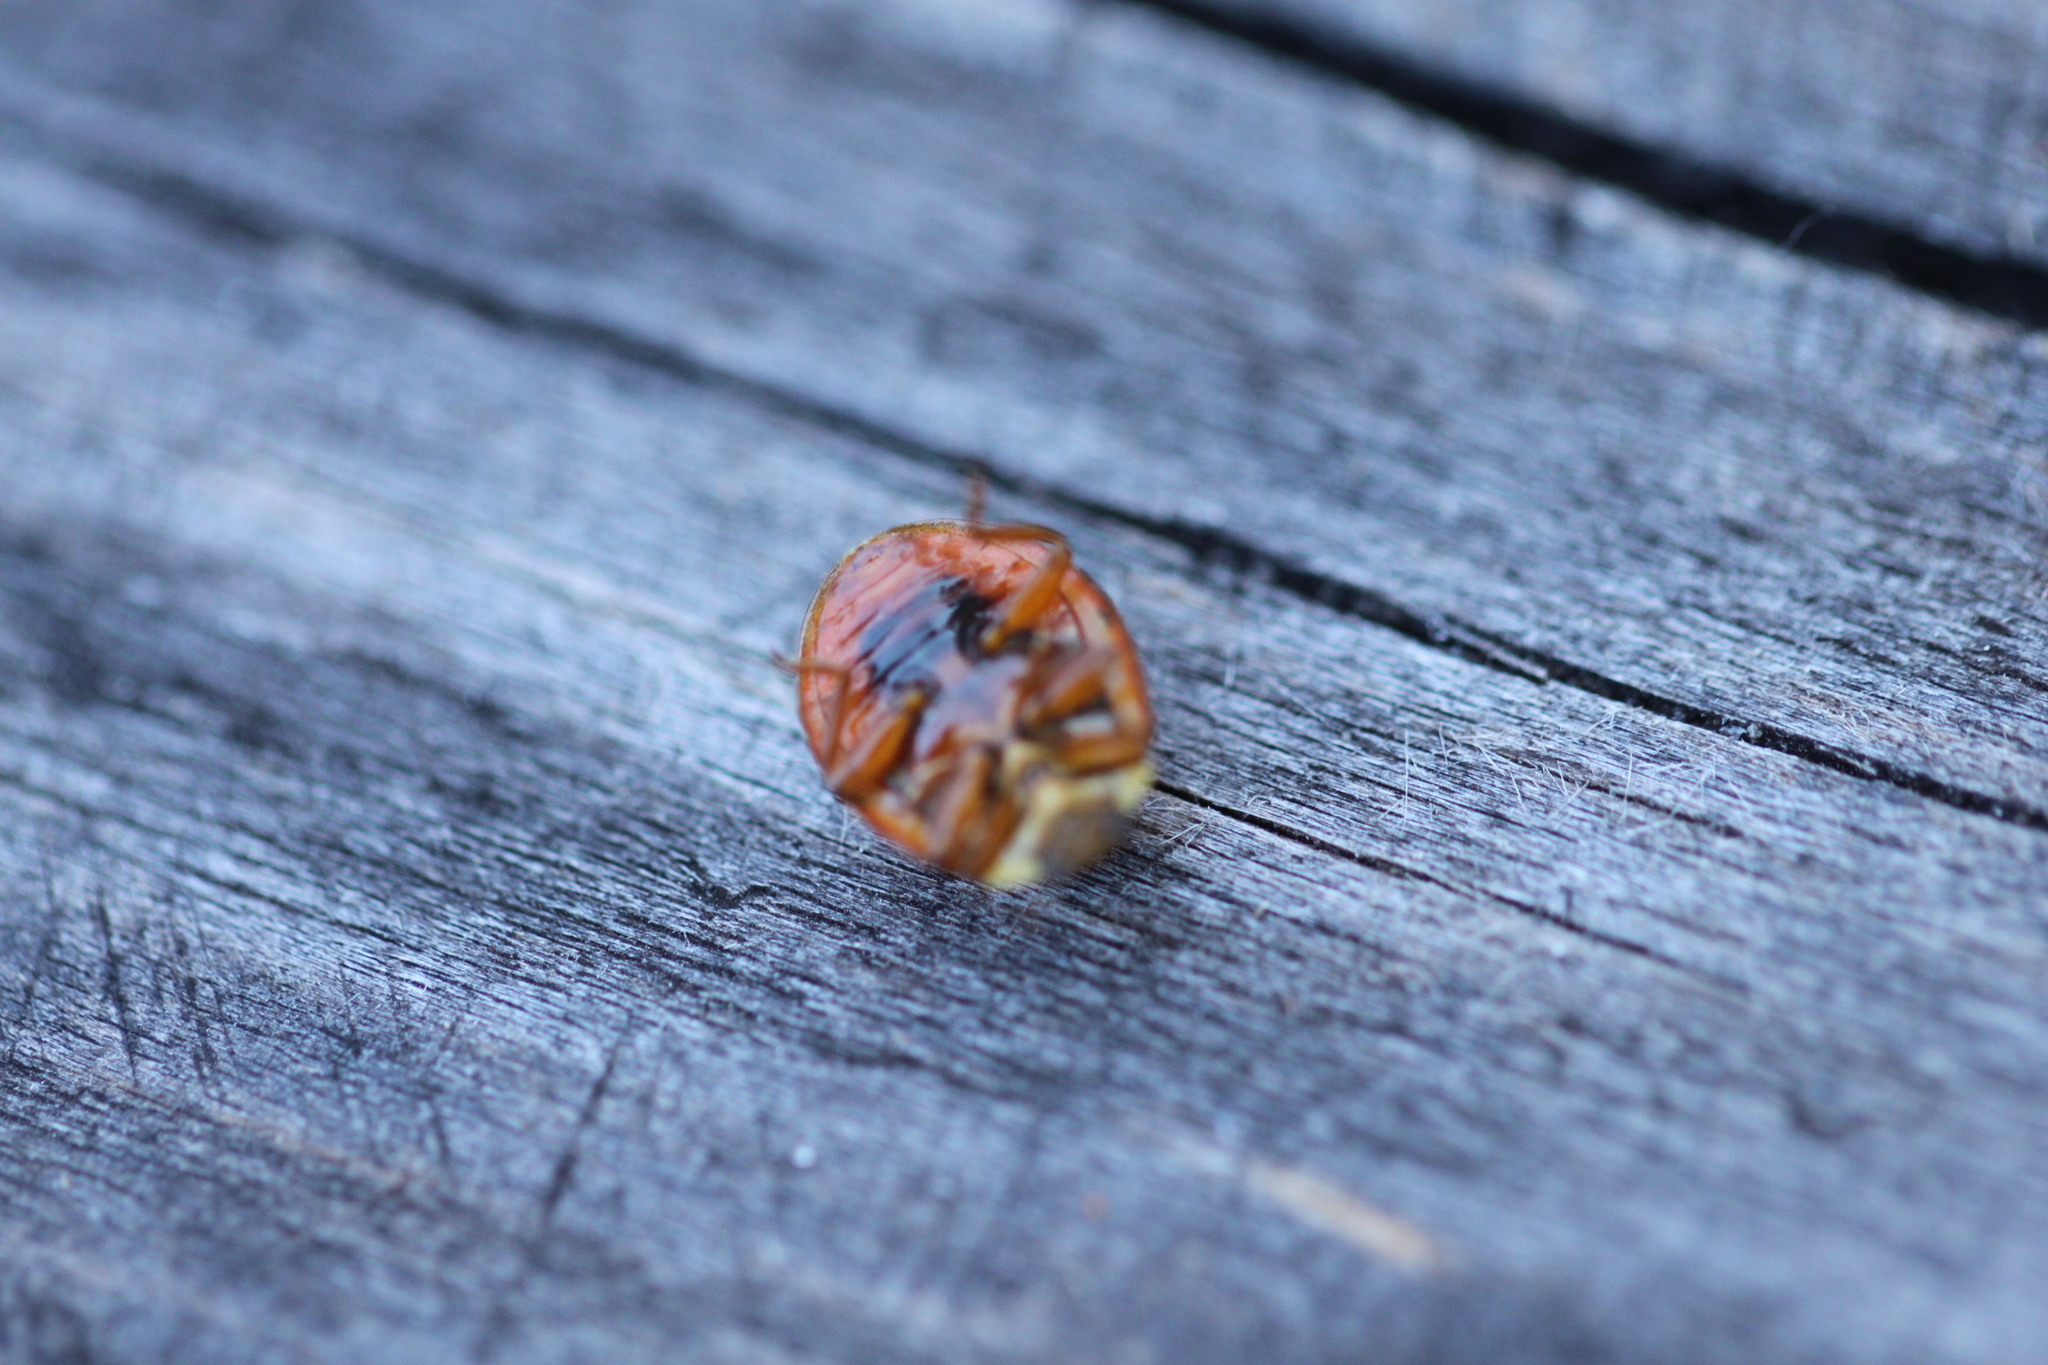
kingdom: Animalia
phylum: Arthropoda
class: Insecta
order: Coleoptera
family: Coccinellidae
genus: Harmonia
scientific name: Harmonia axyridis
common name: Harlequin ladybird
